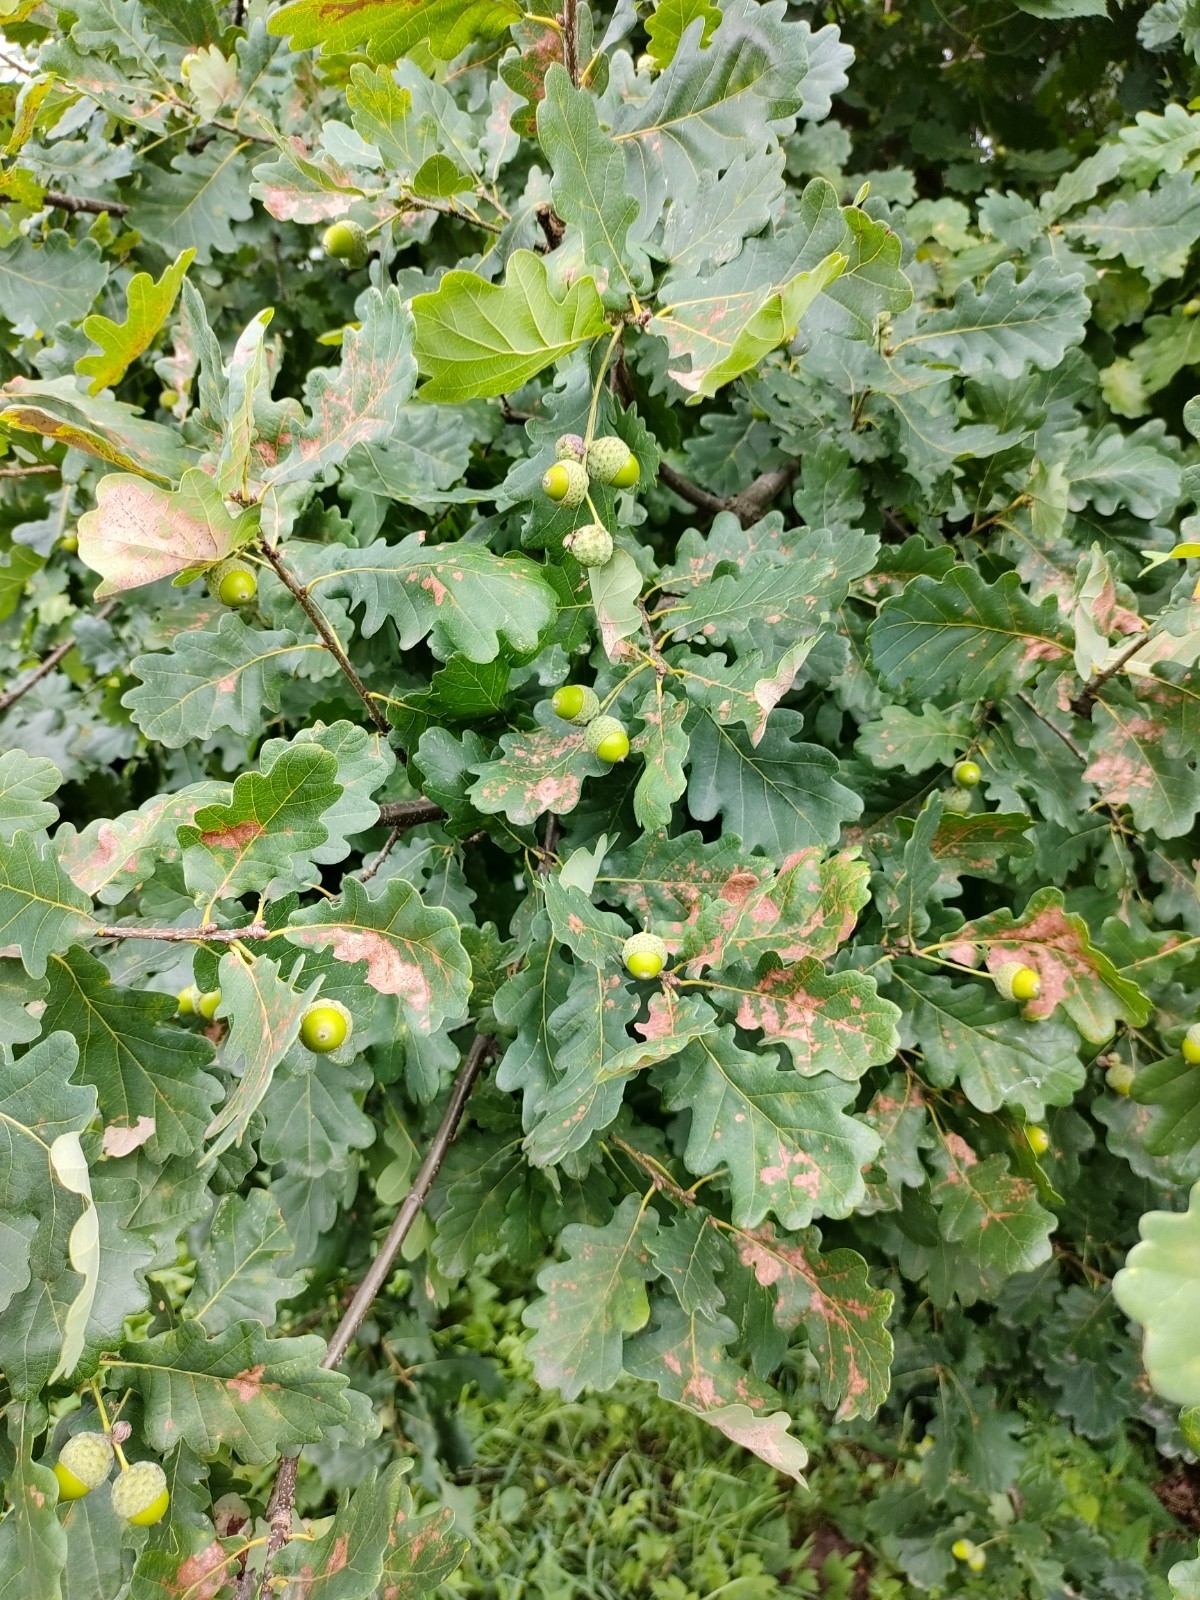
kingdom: Plantae
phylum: Tracheophyta
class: Magnoliopsida
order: Fagales
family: Fagaceae
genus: Quercus
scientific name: Quercus robur
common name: Pedunculate oak
